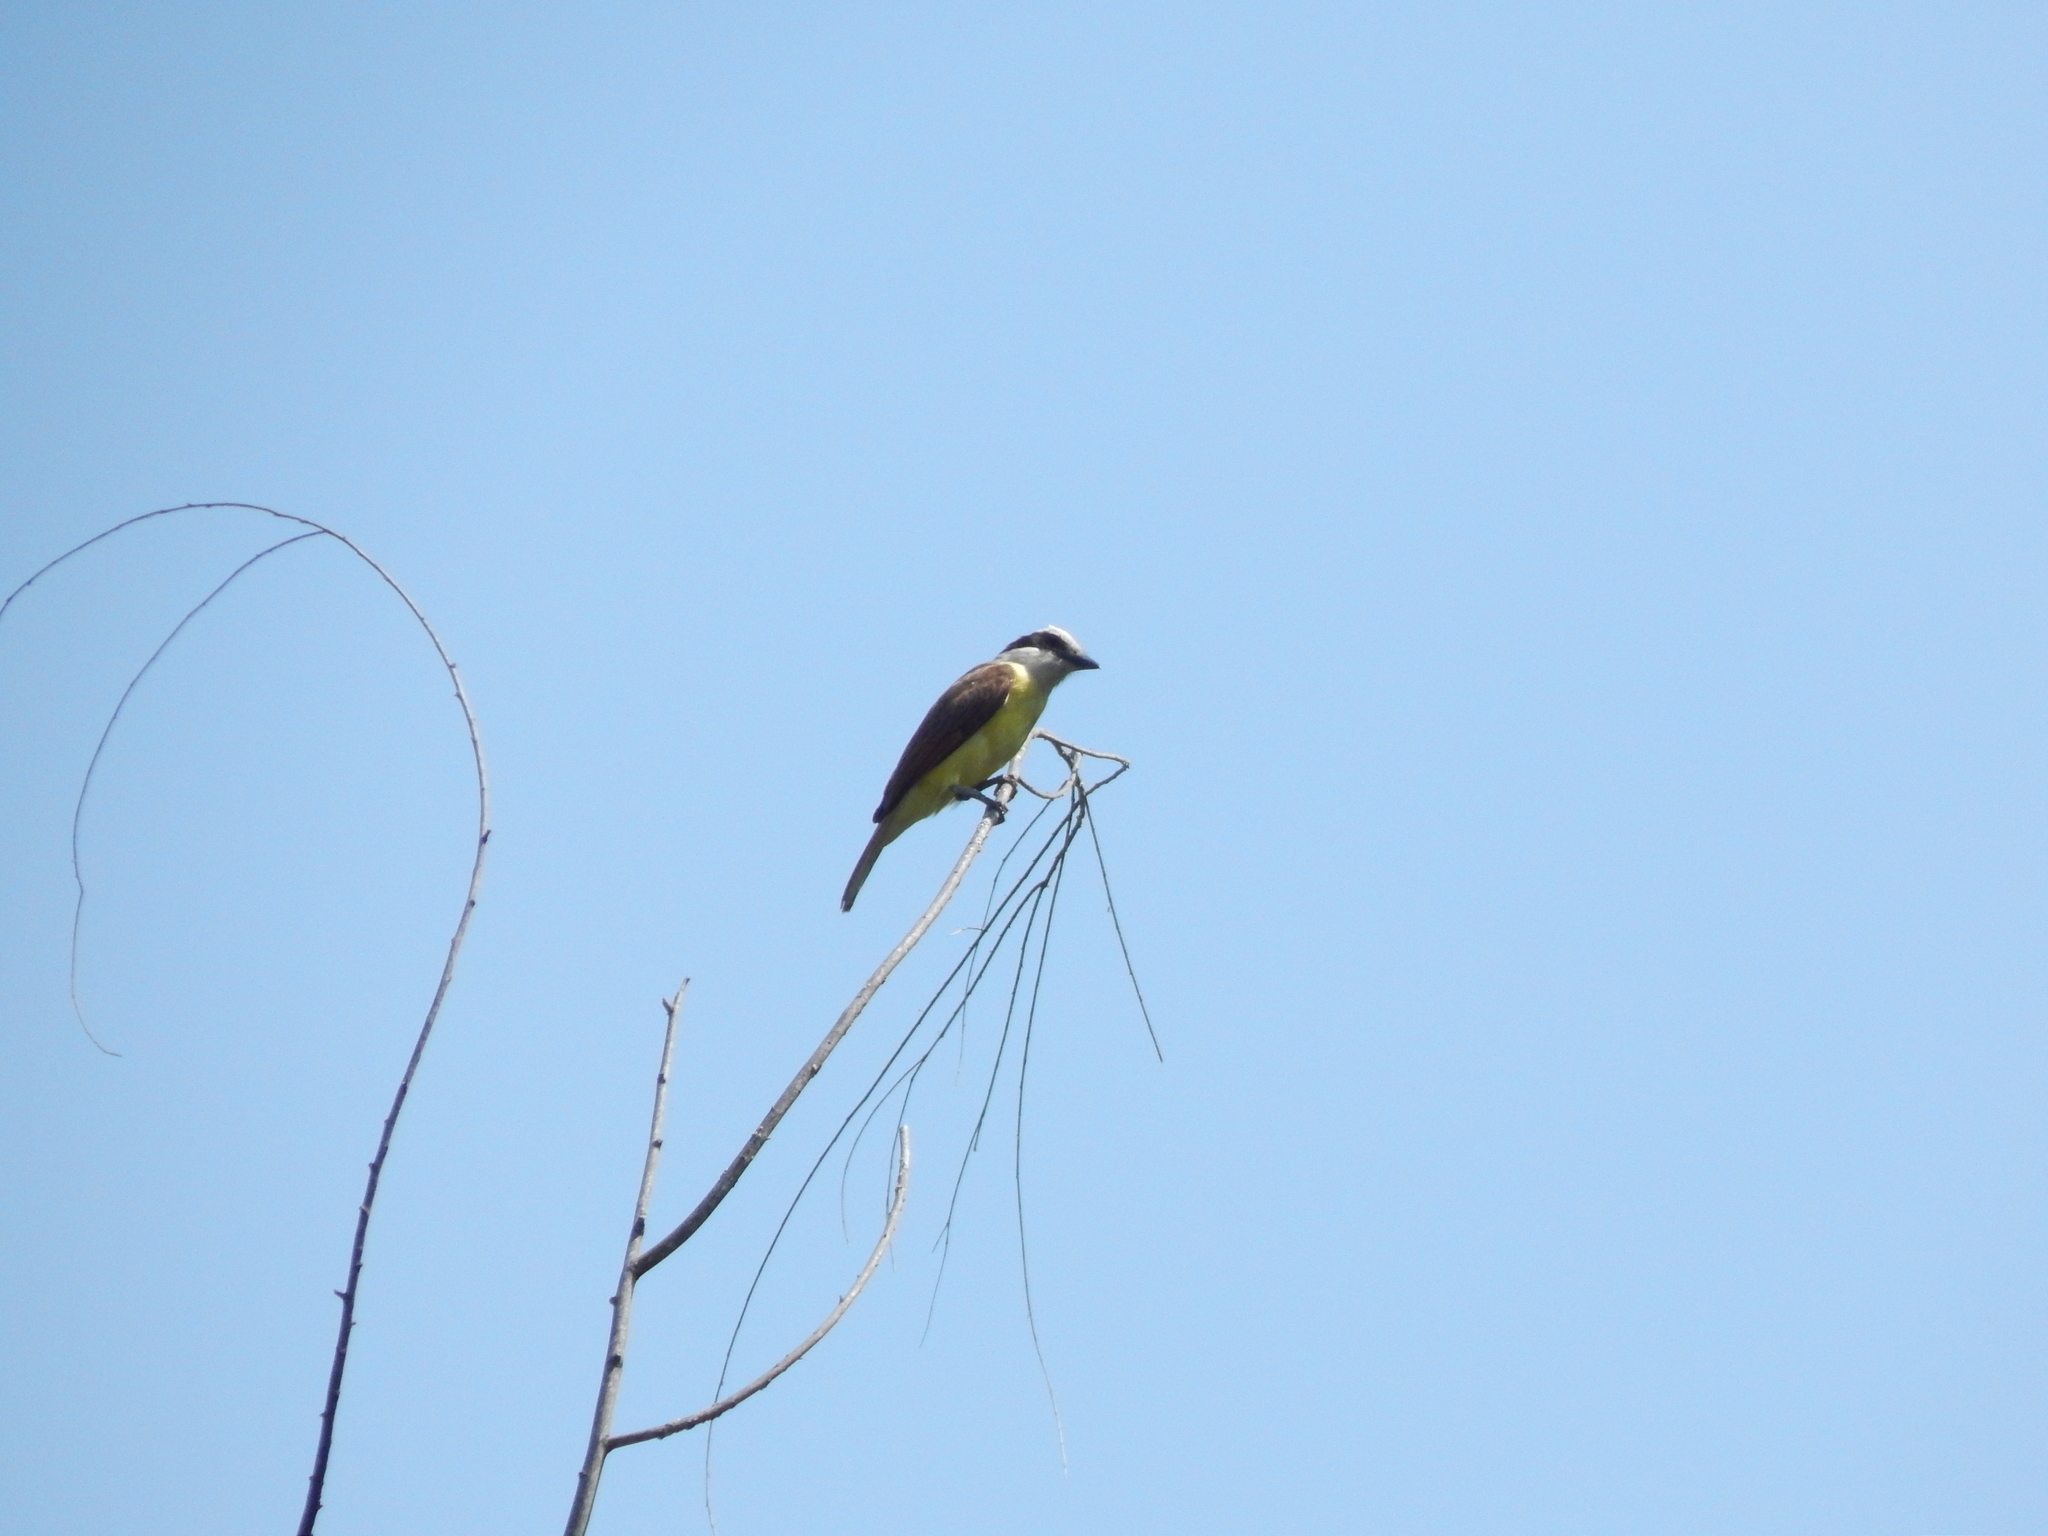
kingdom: Animalia
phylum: Chordata
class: Aves
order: Passeriformes
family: Tyrannidae
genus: Pitangus
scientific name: Pitangus sulphuratus
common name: Great kiskadee
